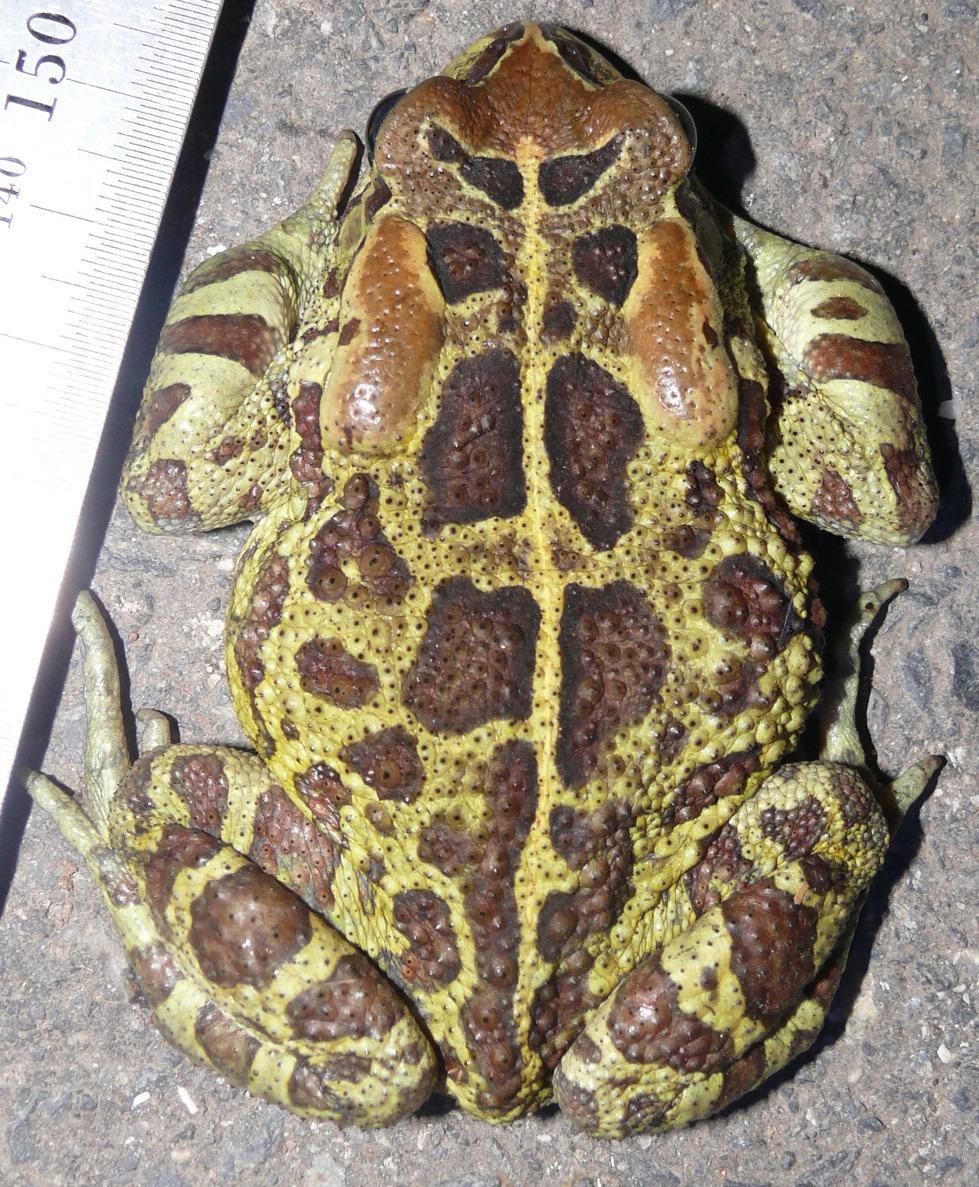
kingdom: Animalia
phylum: Chordata
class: Amphibia
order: Anura
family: Bufonidae
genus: Sclerophrys
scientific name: Sclerophrys pantherina
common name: Panther toad
